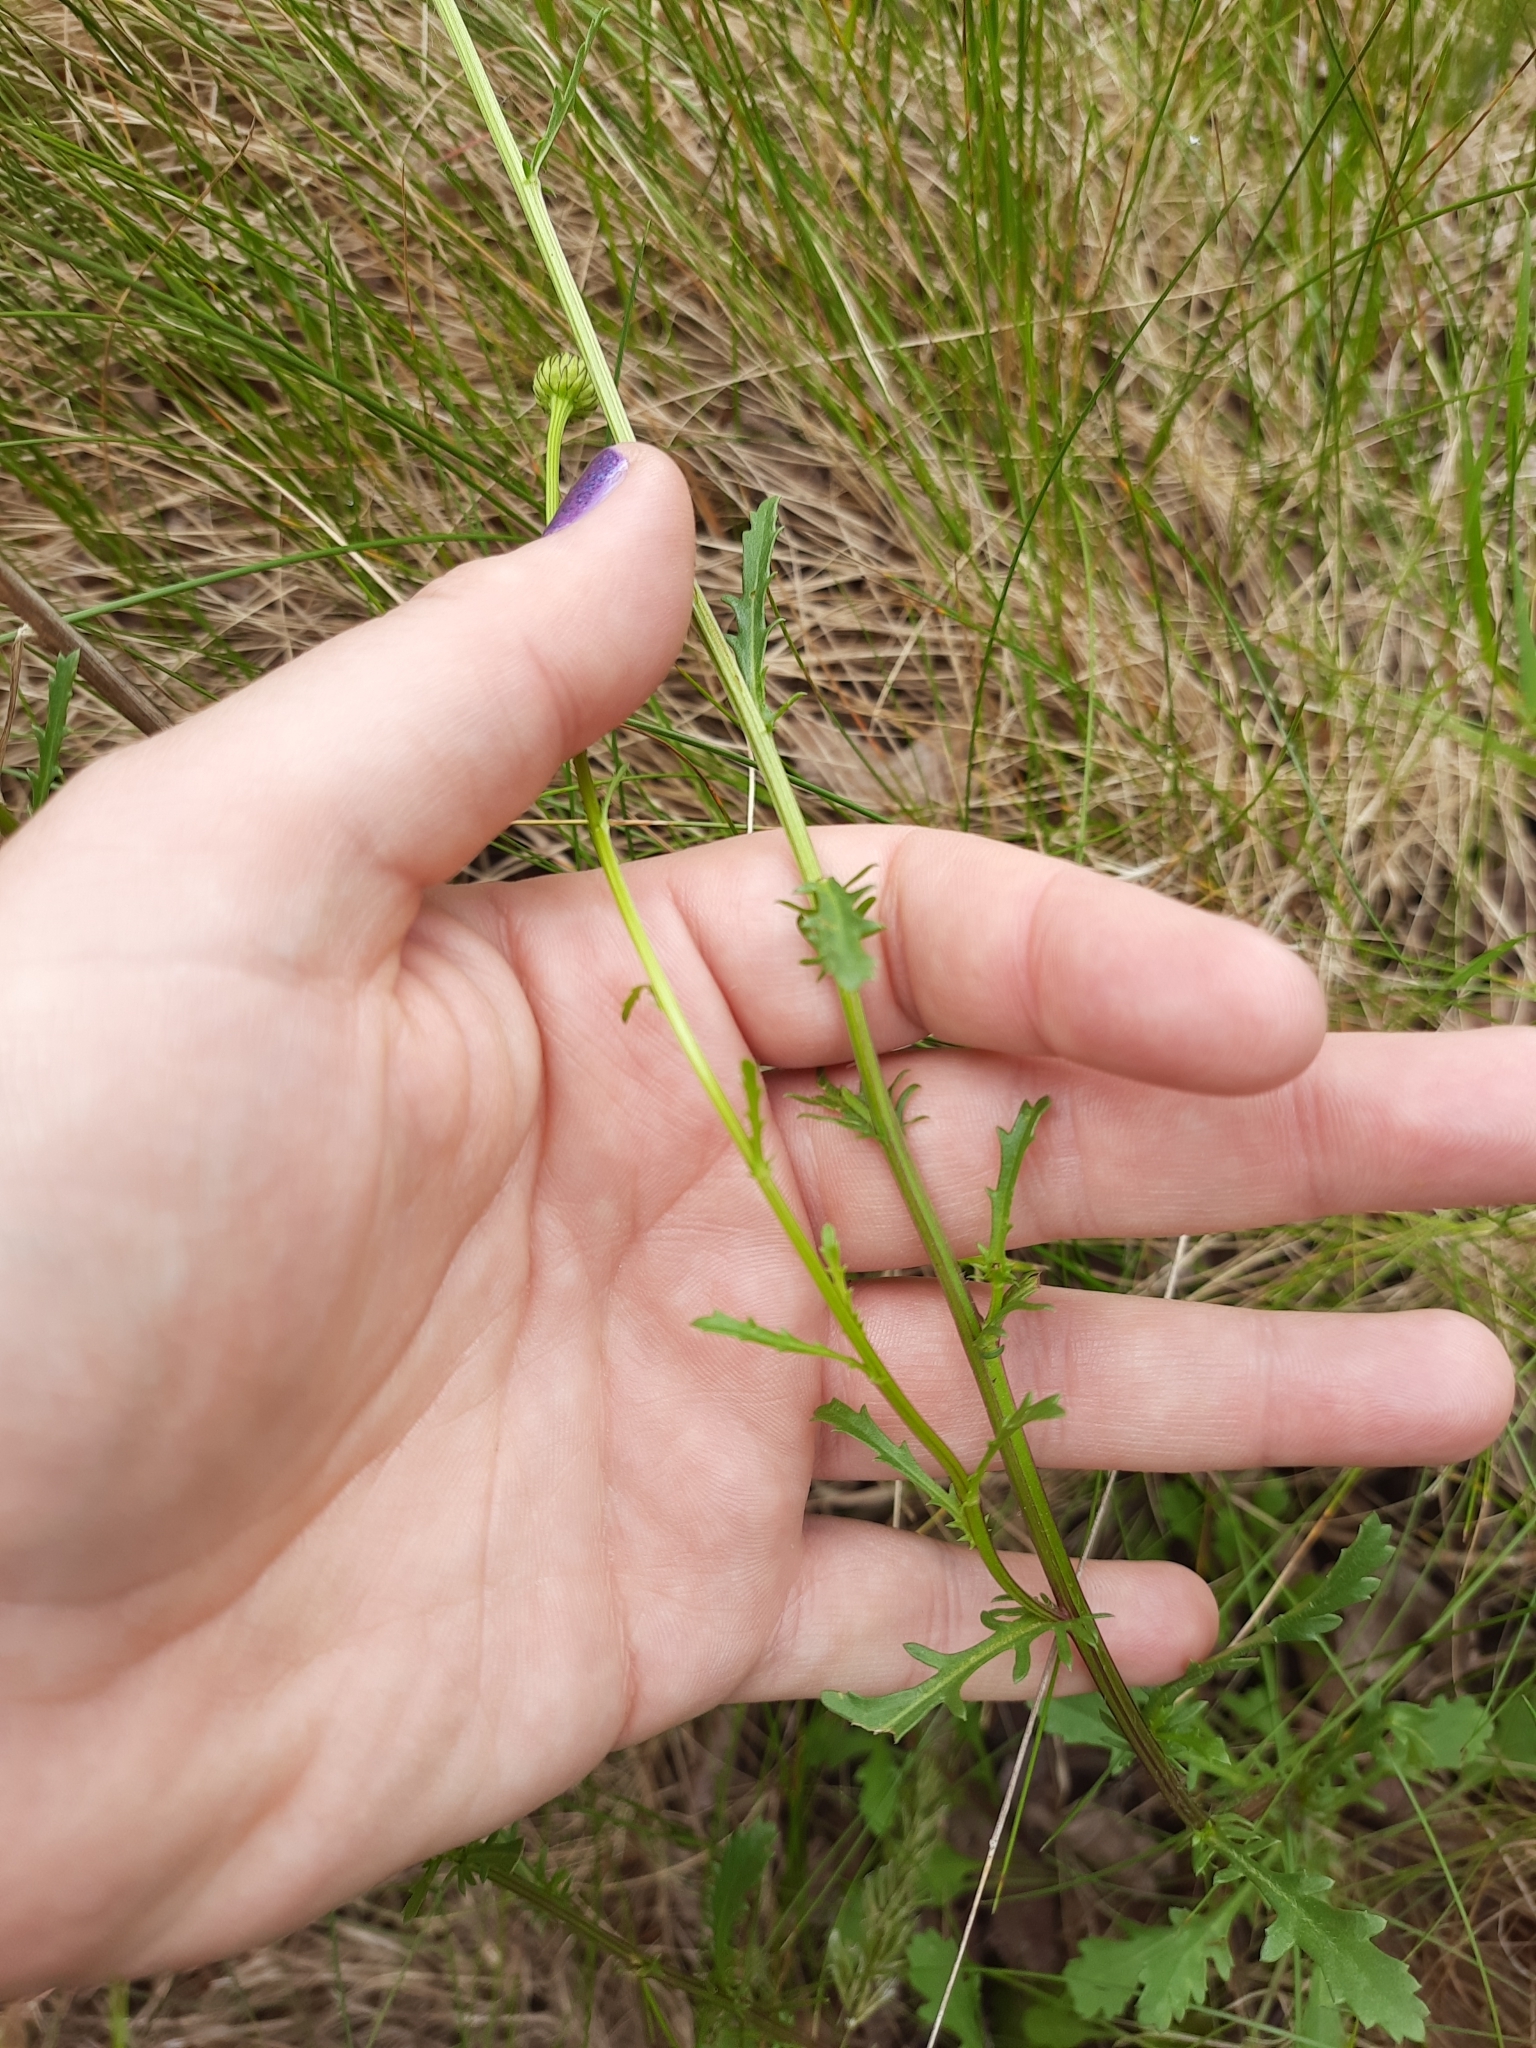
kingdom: Plantae
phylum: Tracheophyta
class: Magnoliopsida
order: Asterales
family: Asteraceae
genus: Leucanthemum
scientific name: Leucanthemum vulgare
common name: Oxeye daisy
